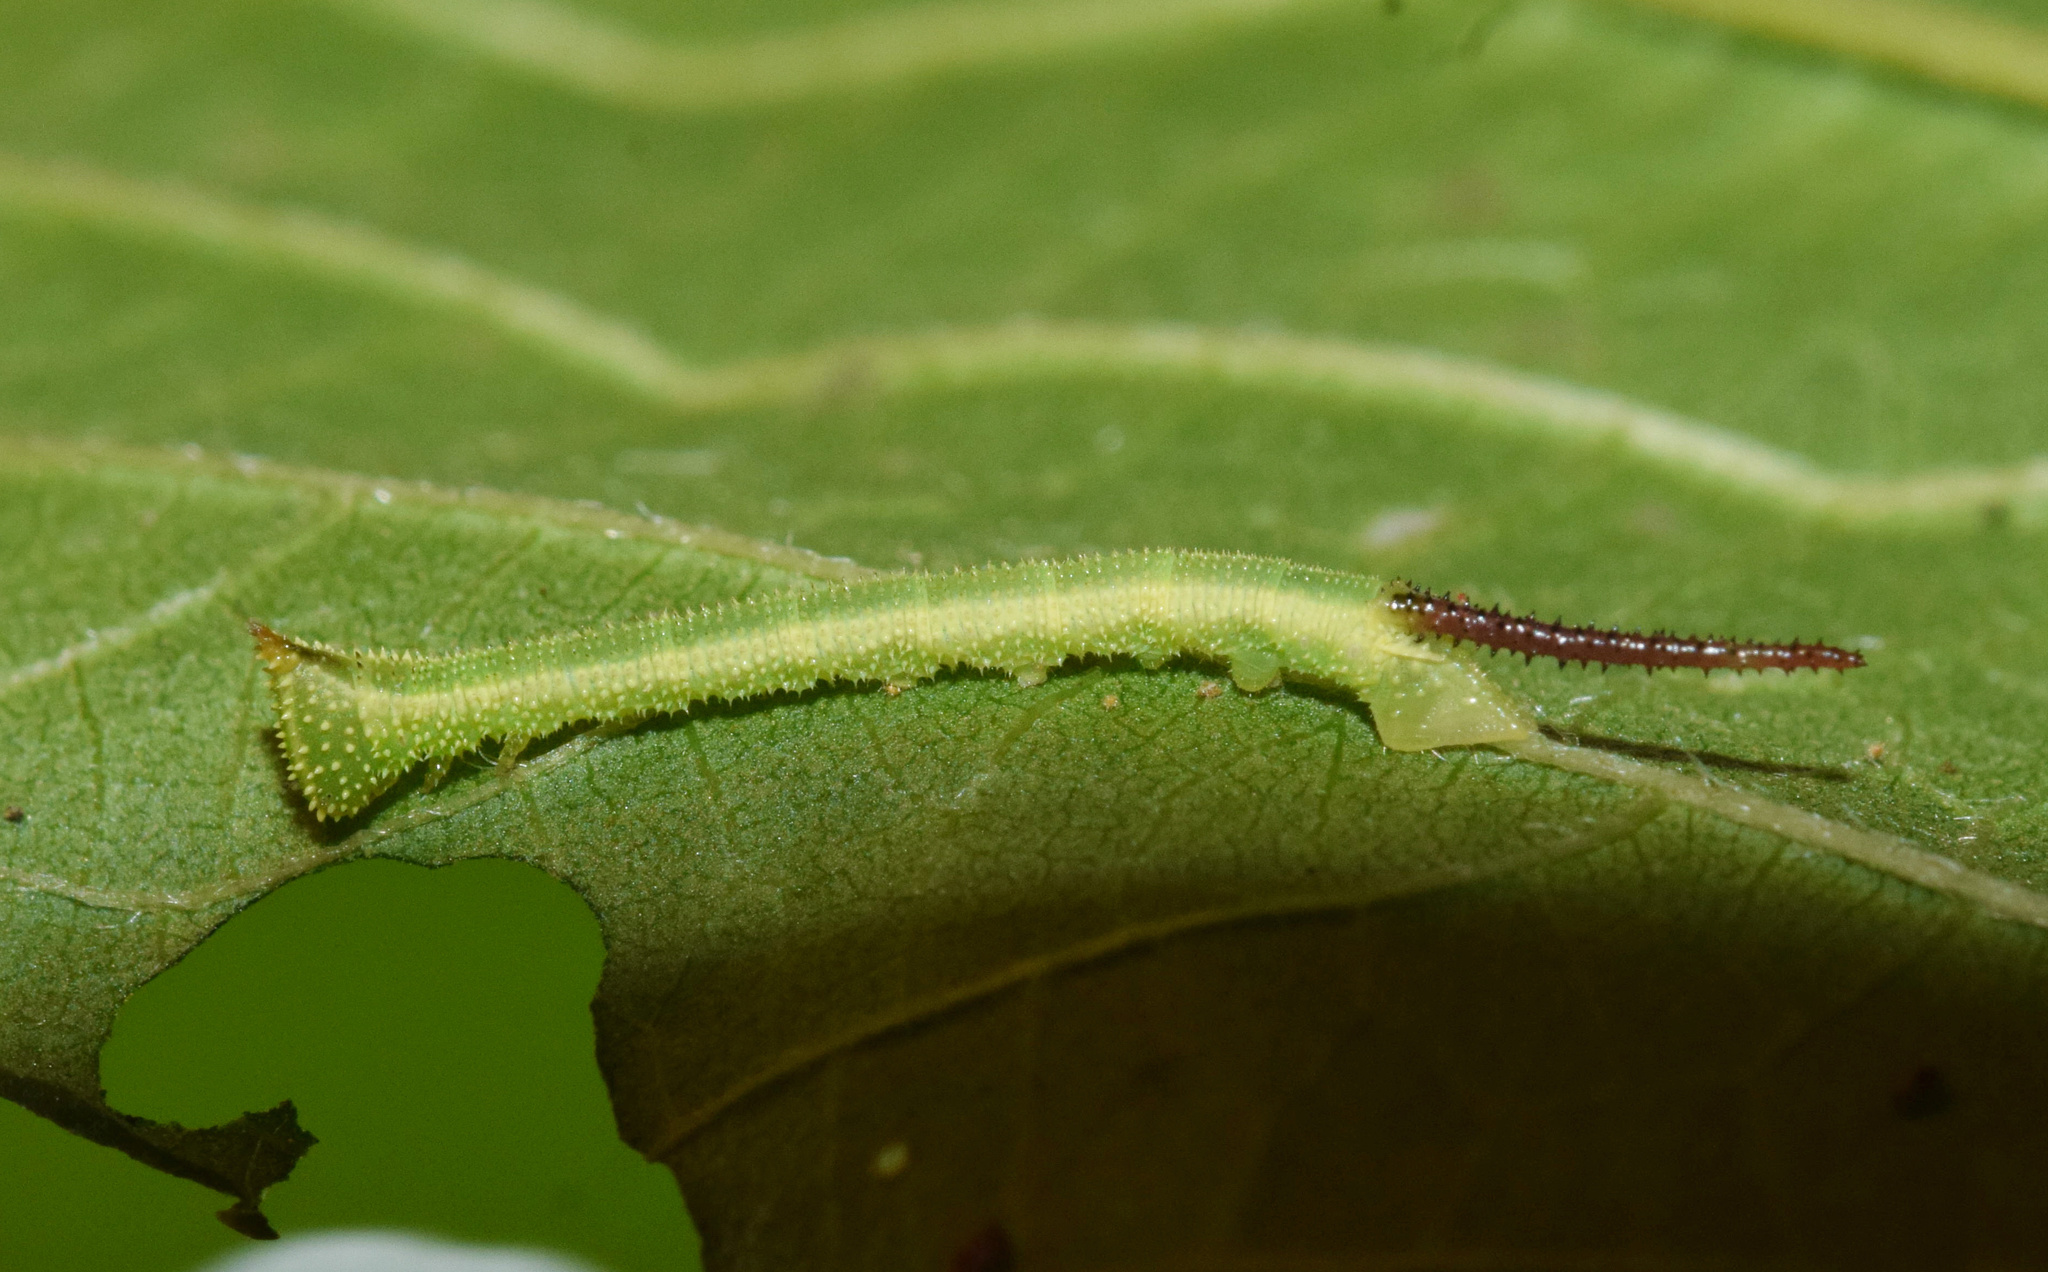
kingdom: Animalia
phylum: Arthropoda
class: Insecta
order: Lepidoptera
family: Sphingidae
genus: Pseudoclanis
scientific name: Pseudoclanis postica
